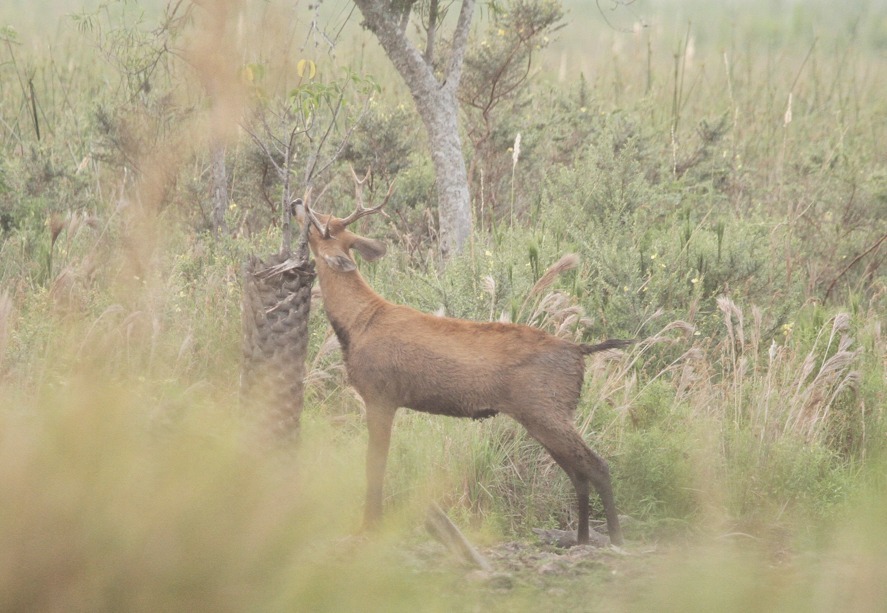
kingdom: Animalia
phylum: Chordata
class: Mammalia
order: Artiodactyla
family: Cervidae
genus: Blastocerus
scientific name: Blastocerus dichotomus
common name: Marsh deer
